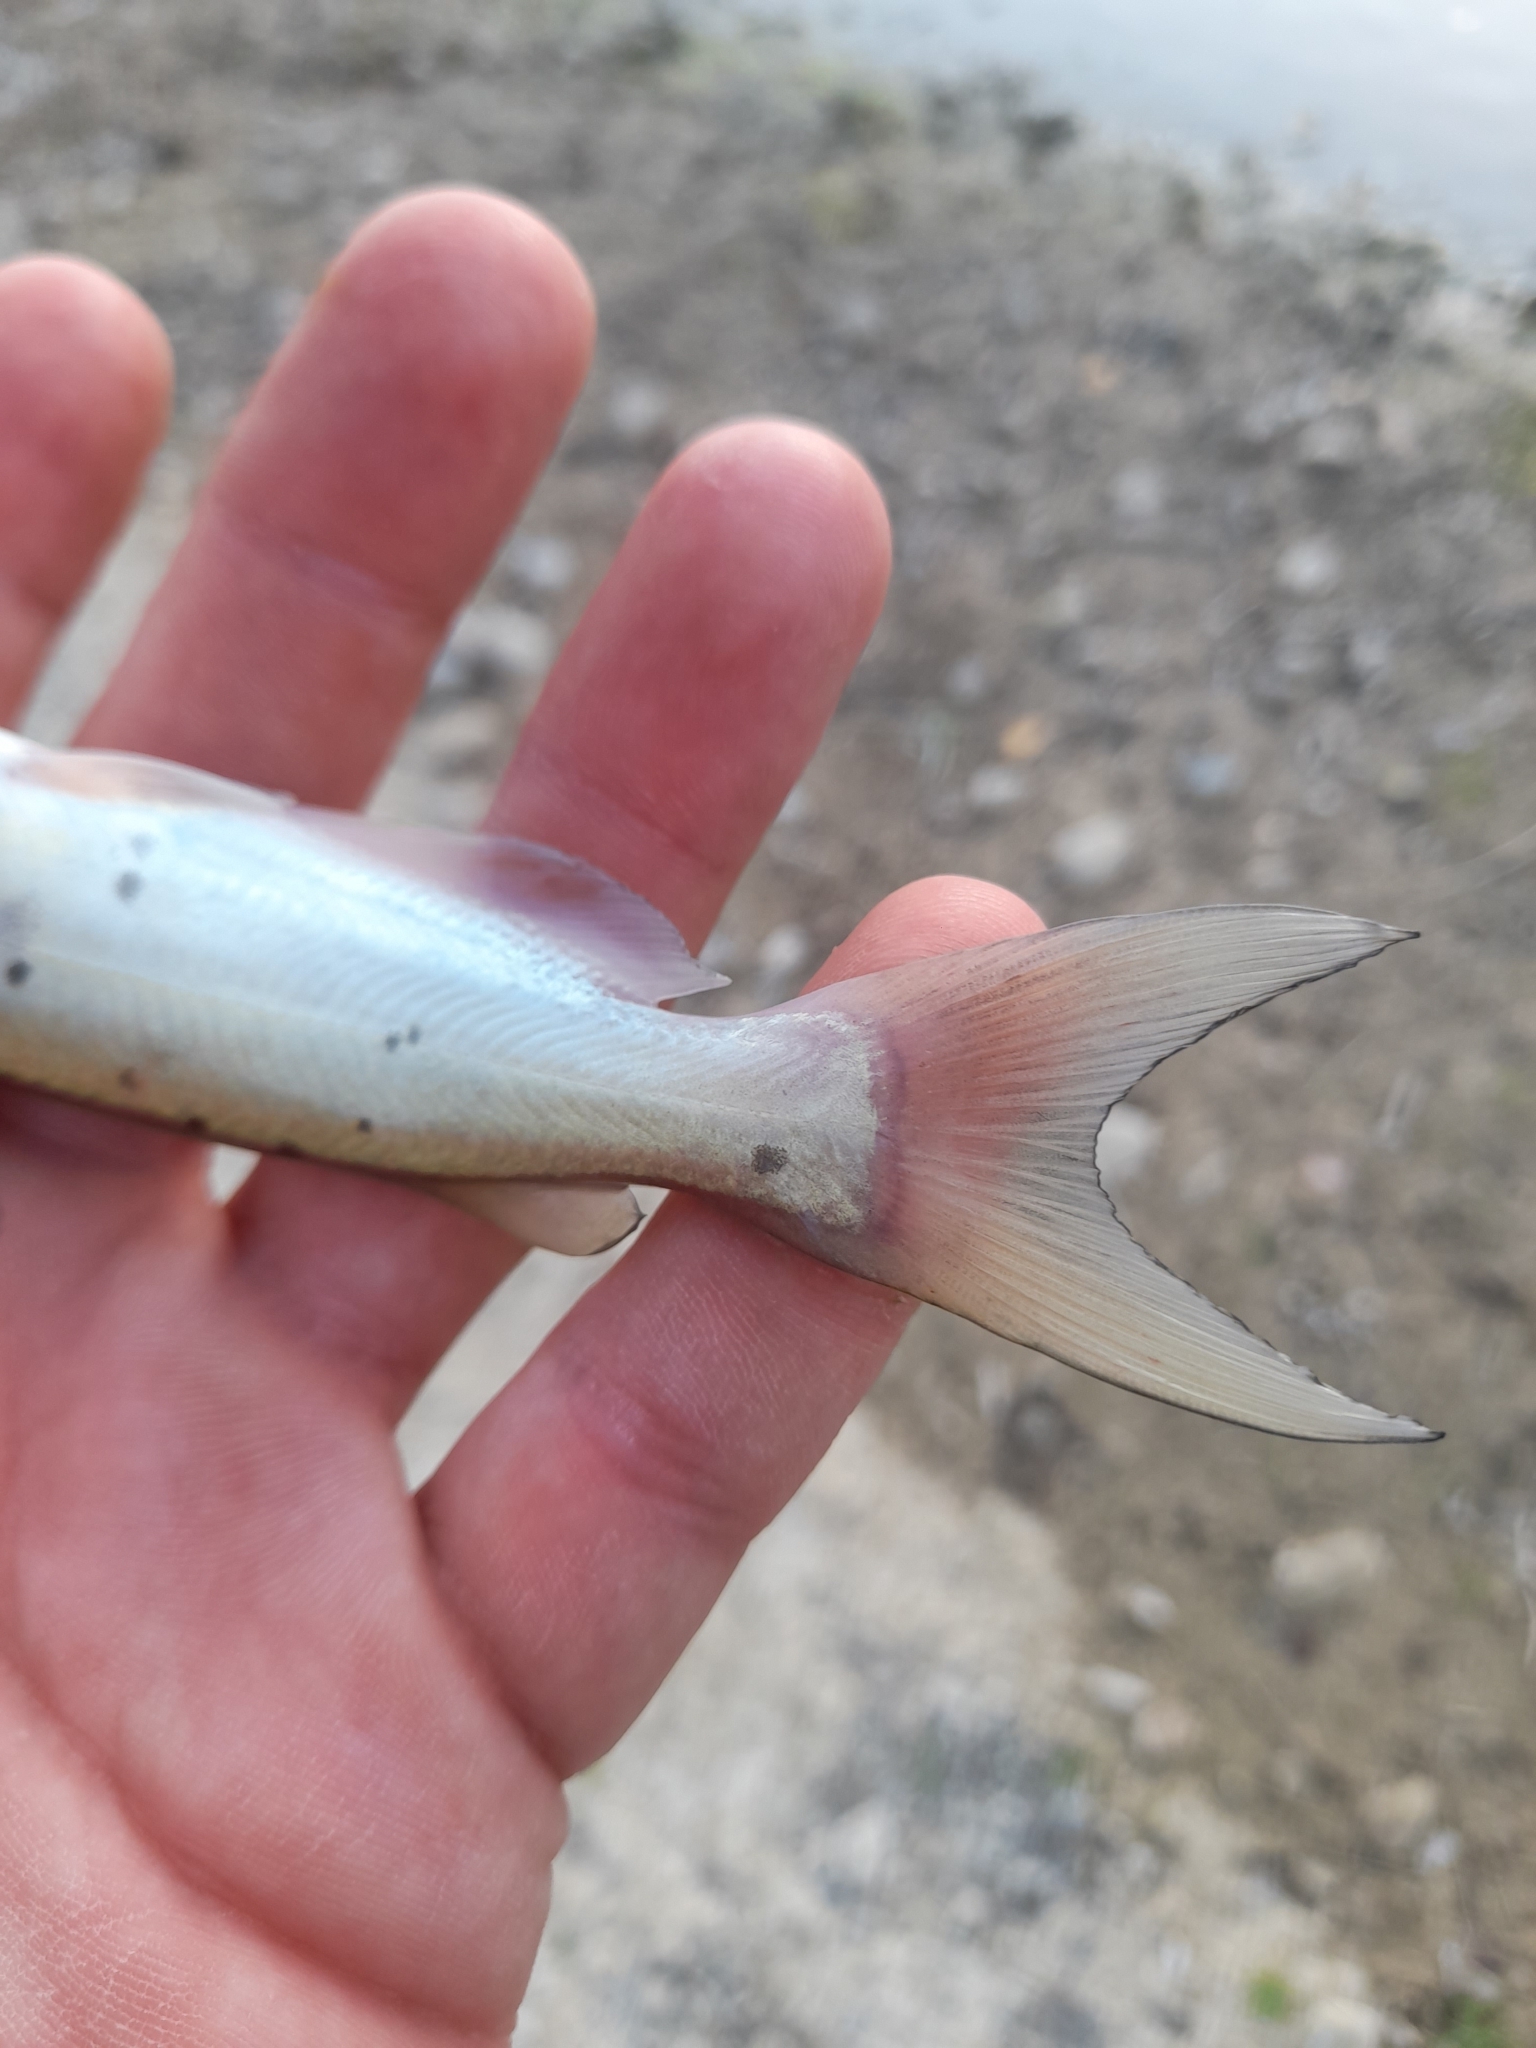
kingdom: Animalia
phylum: Chordata
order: Siluriformes
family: Ictaluridae
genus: Ictalurus
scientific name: Ictalurus punctatus
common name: Channel catfish
